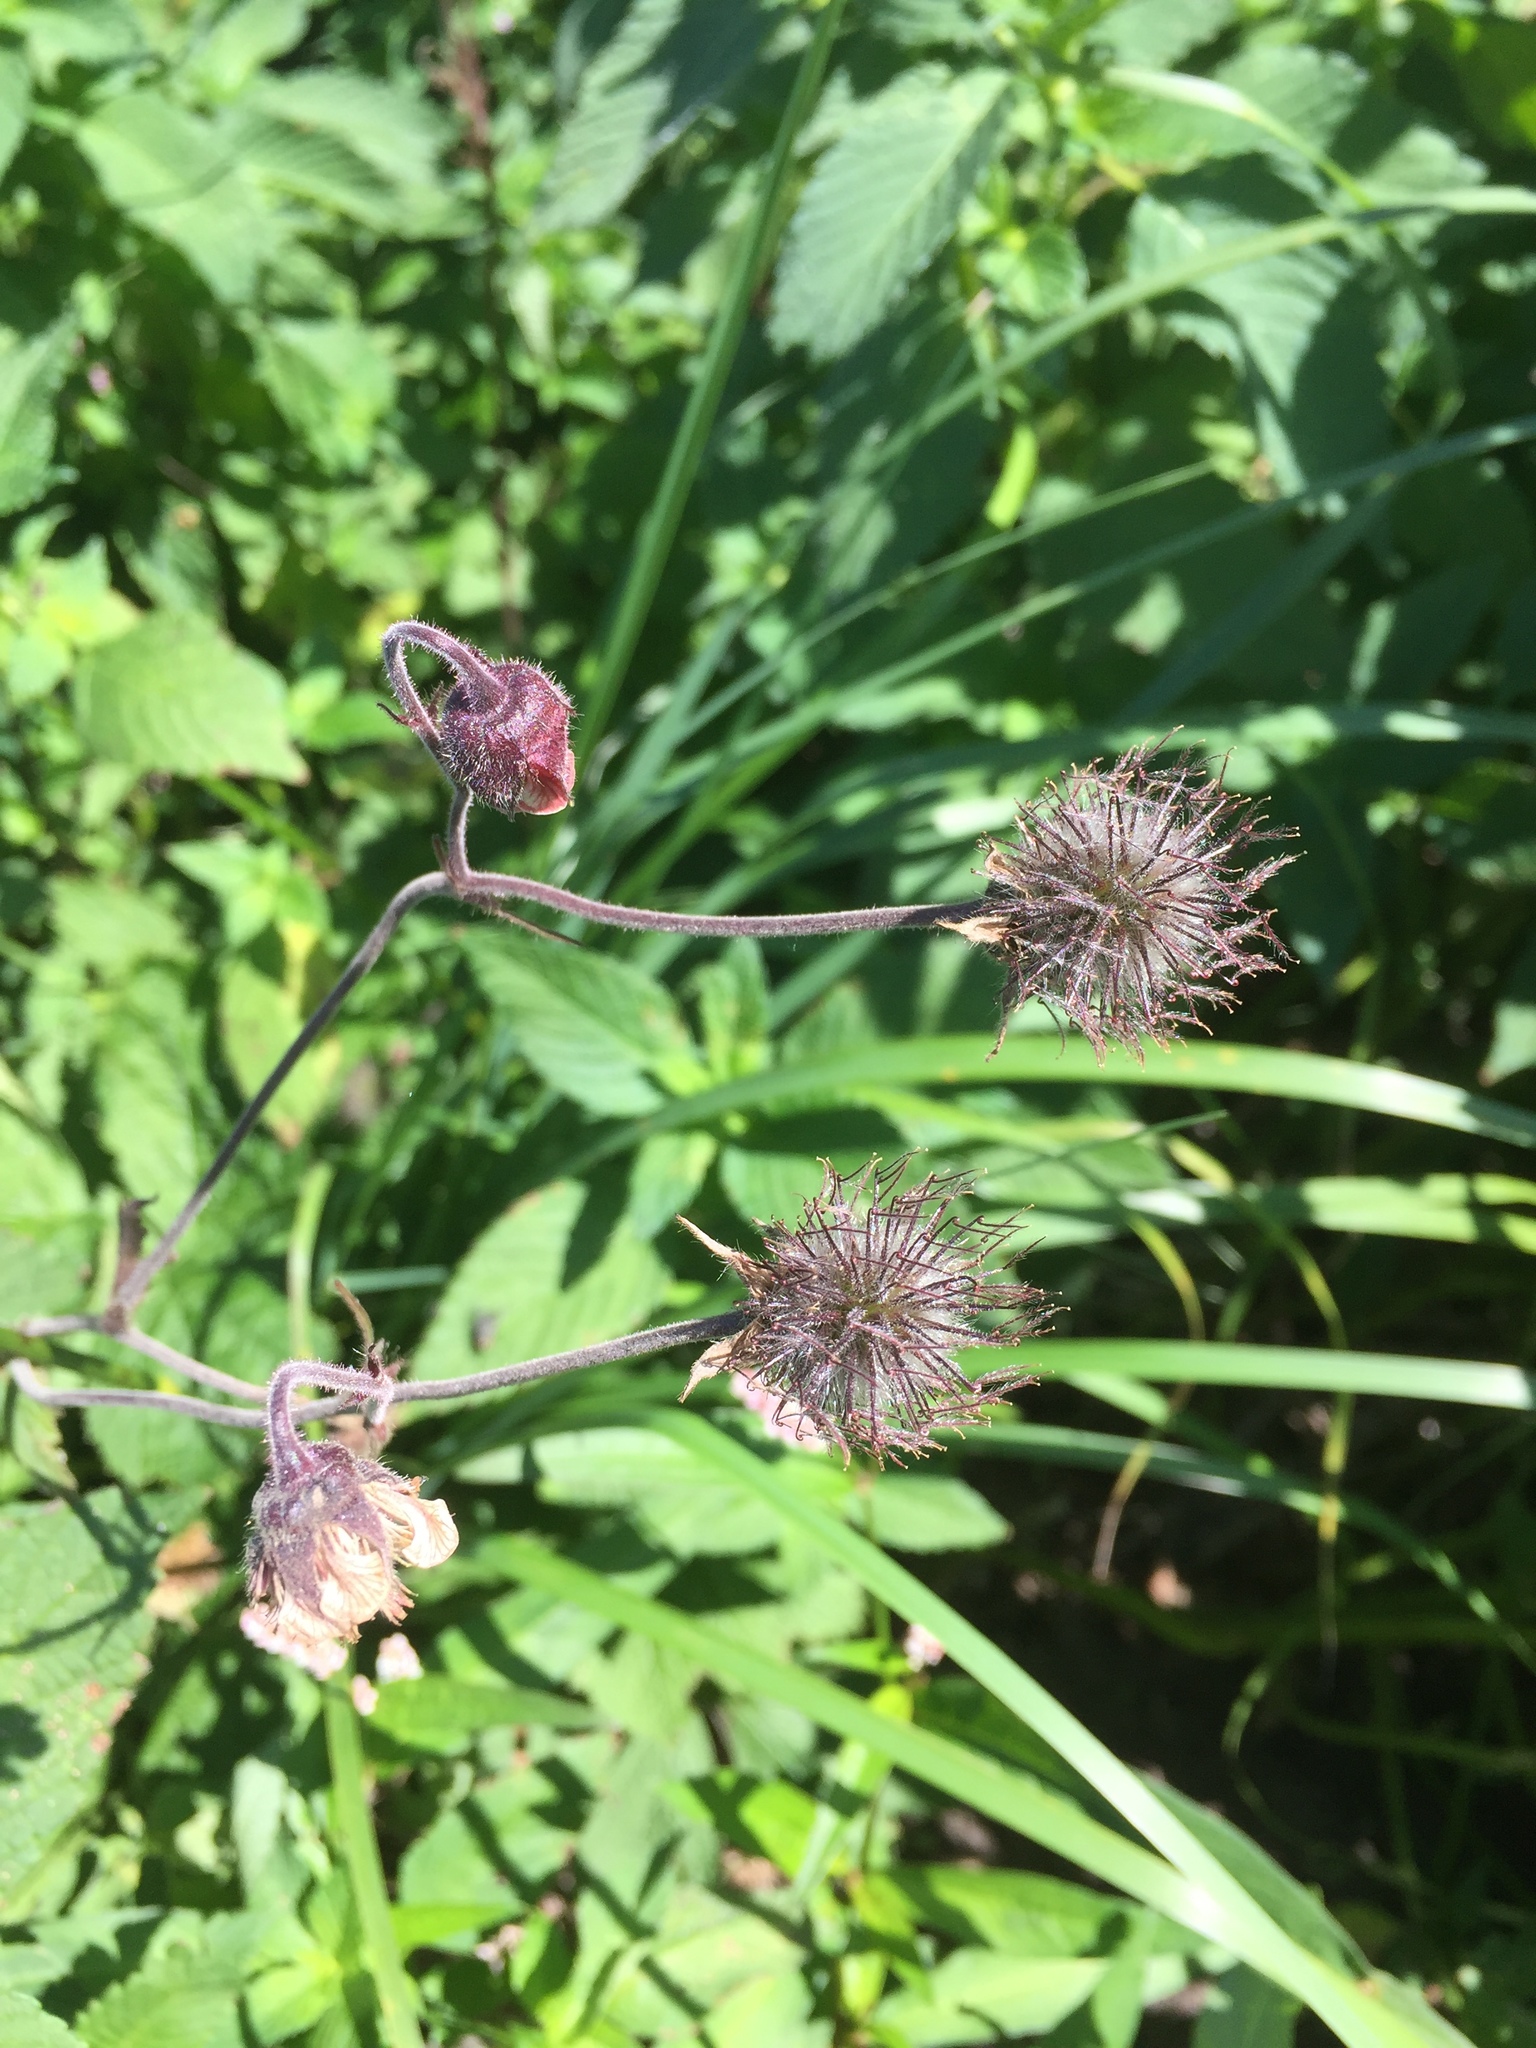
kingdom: Plantae
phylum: Tracheophyta
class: Magnoliopsida
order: Rosales
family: Rosaceae
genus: Geum
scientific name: Geum rivale
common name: Water avens
